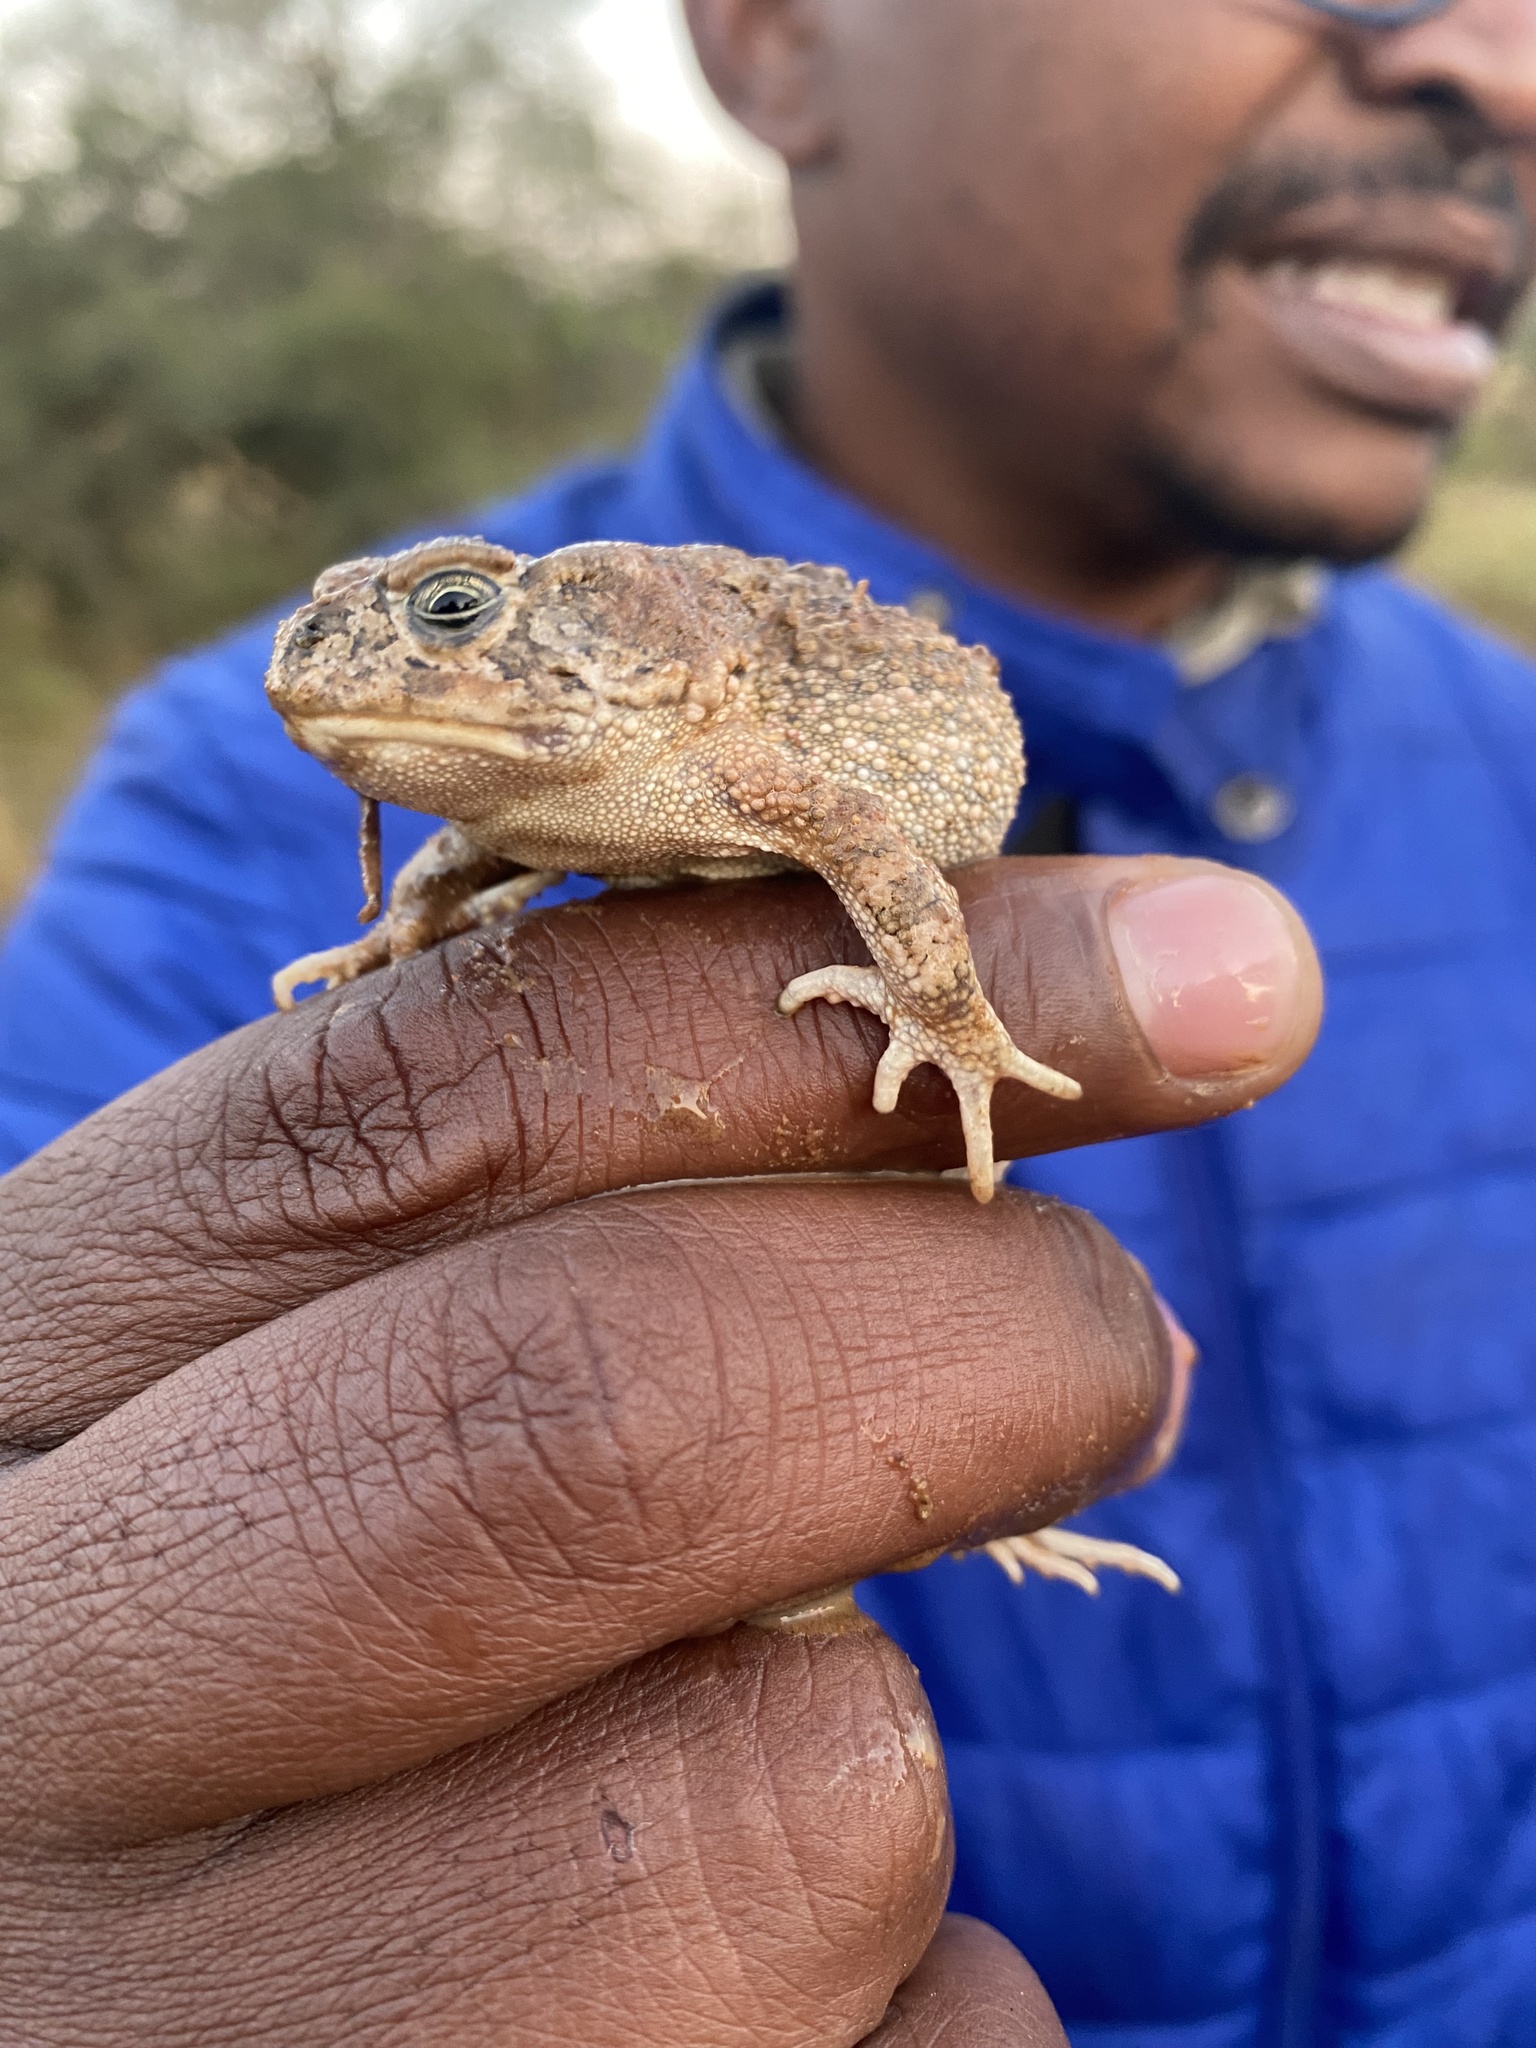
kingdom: Animalia
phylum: Chordata
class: Amphibia
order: Anura
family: Bufonidae
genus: Sclerophrys
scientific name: Sclerophrys gutturalis
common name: African common toad
